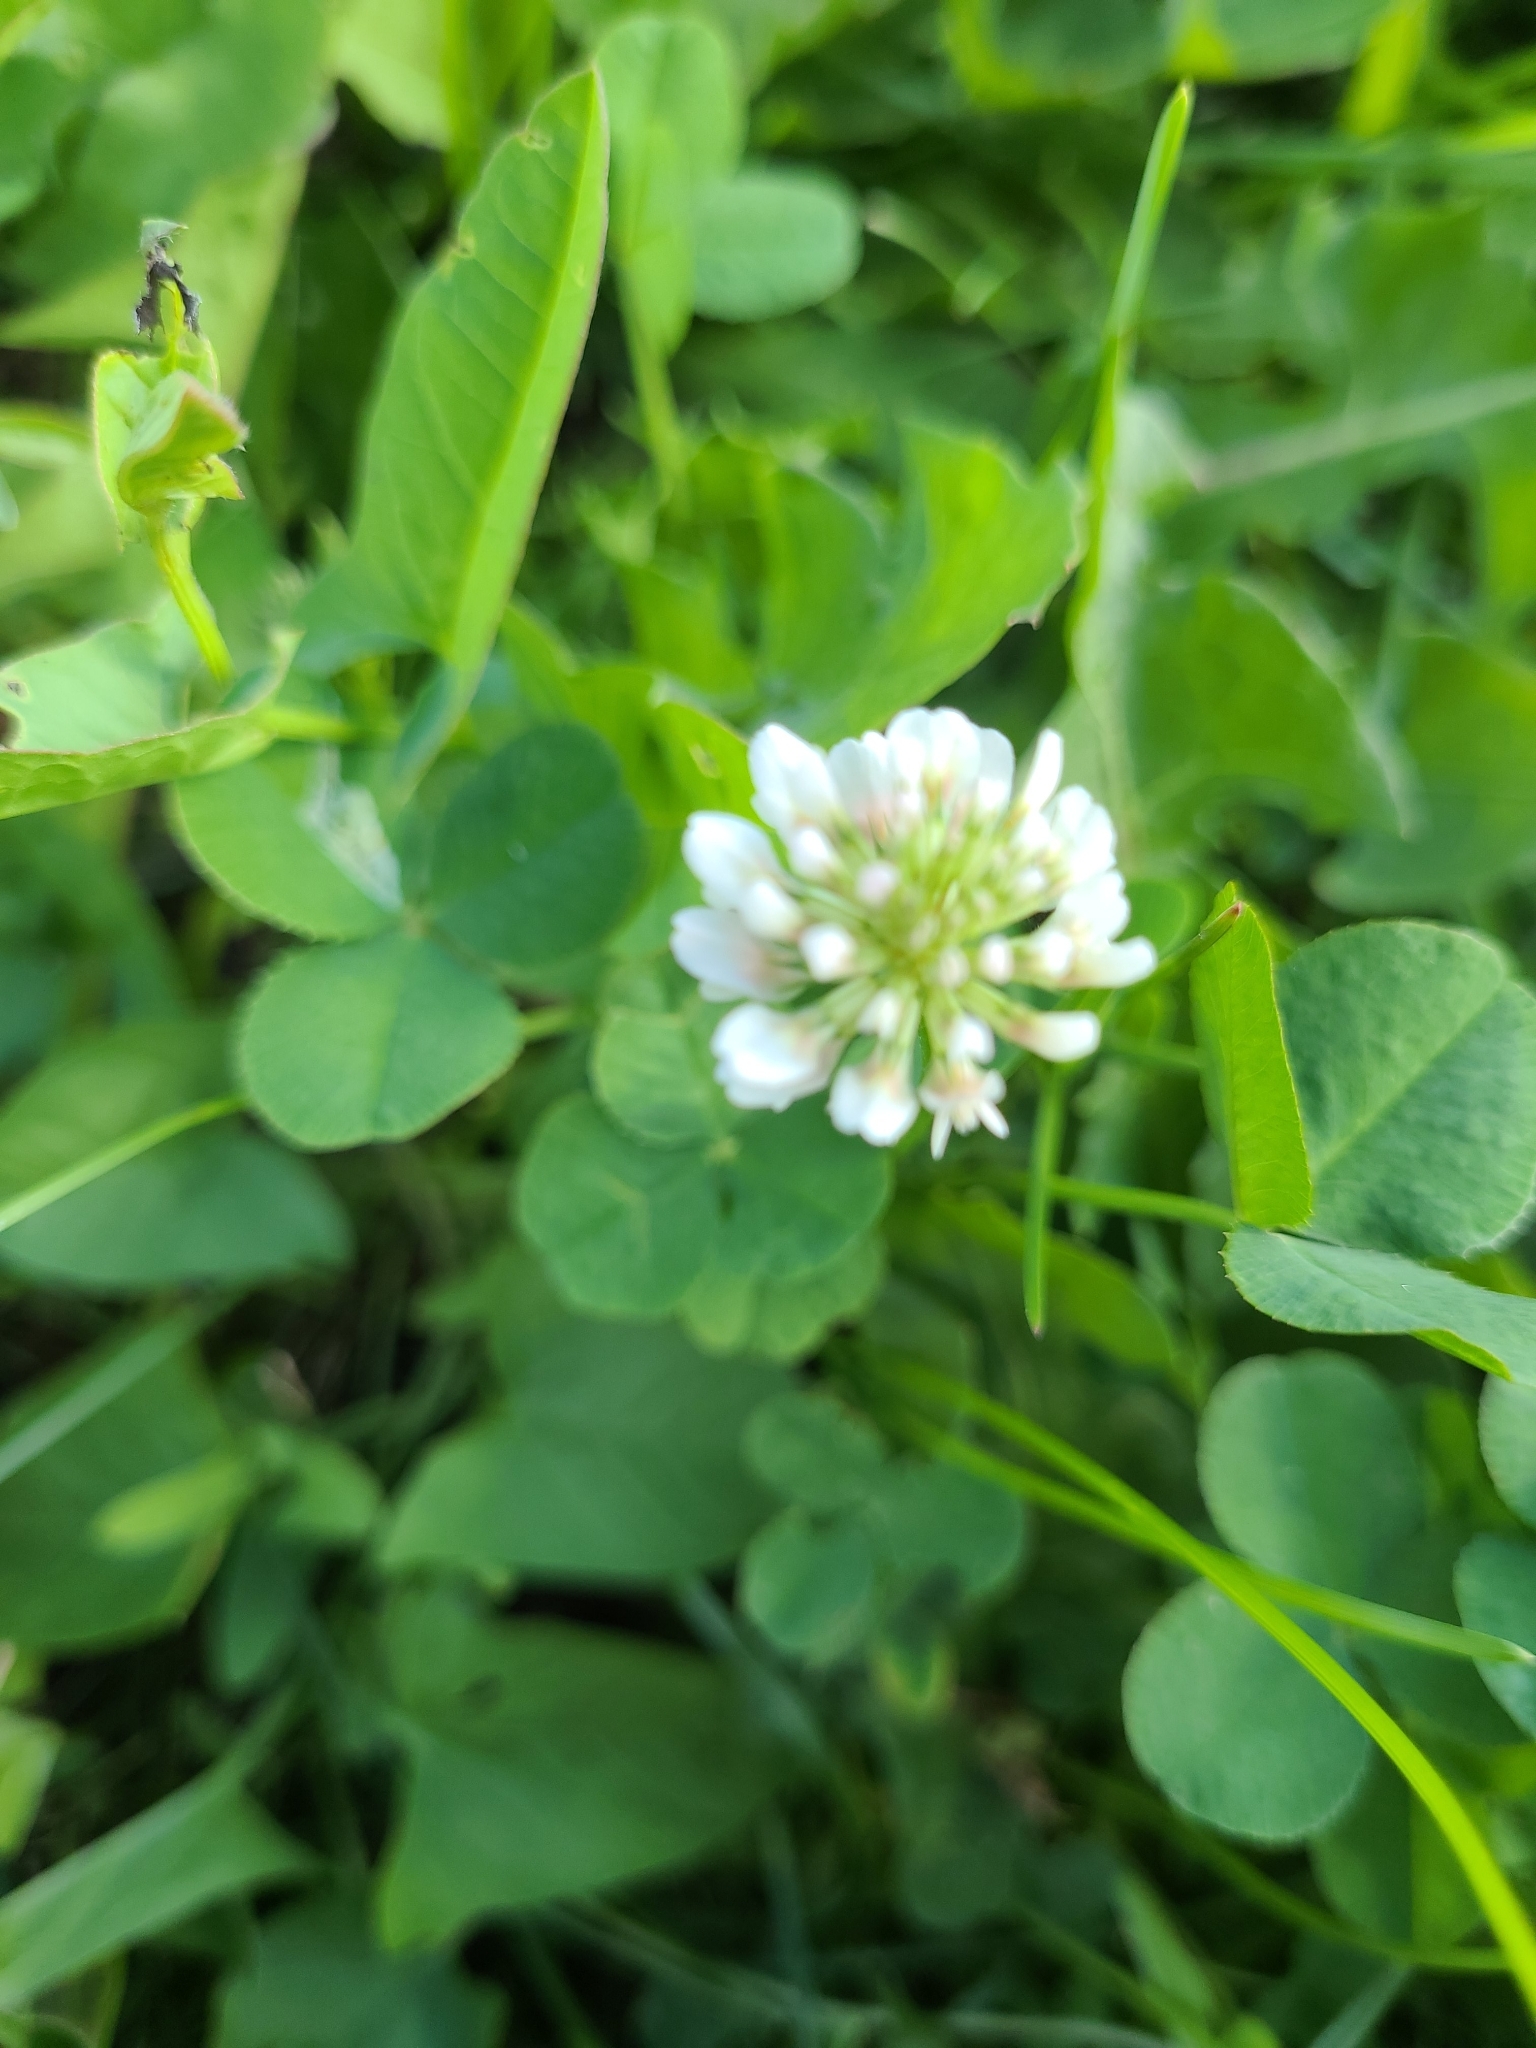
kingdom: Plantae
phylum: Tracheophyta
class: Magnoliopsida
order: Fabales
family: Fabaceae
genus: Trifolium
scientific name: Trifolium repens
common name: White clover
